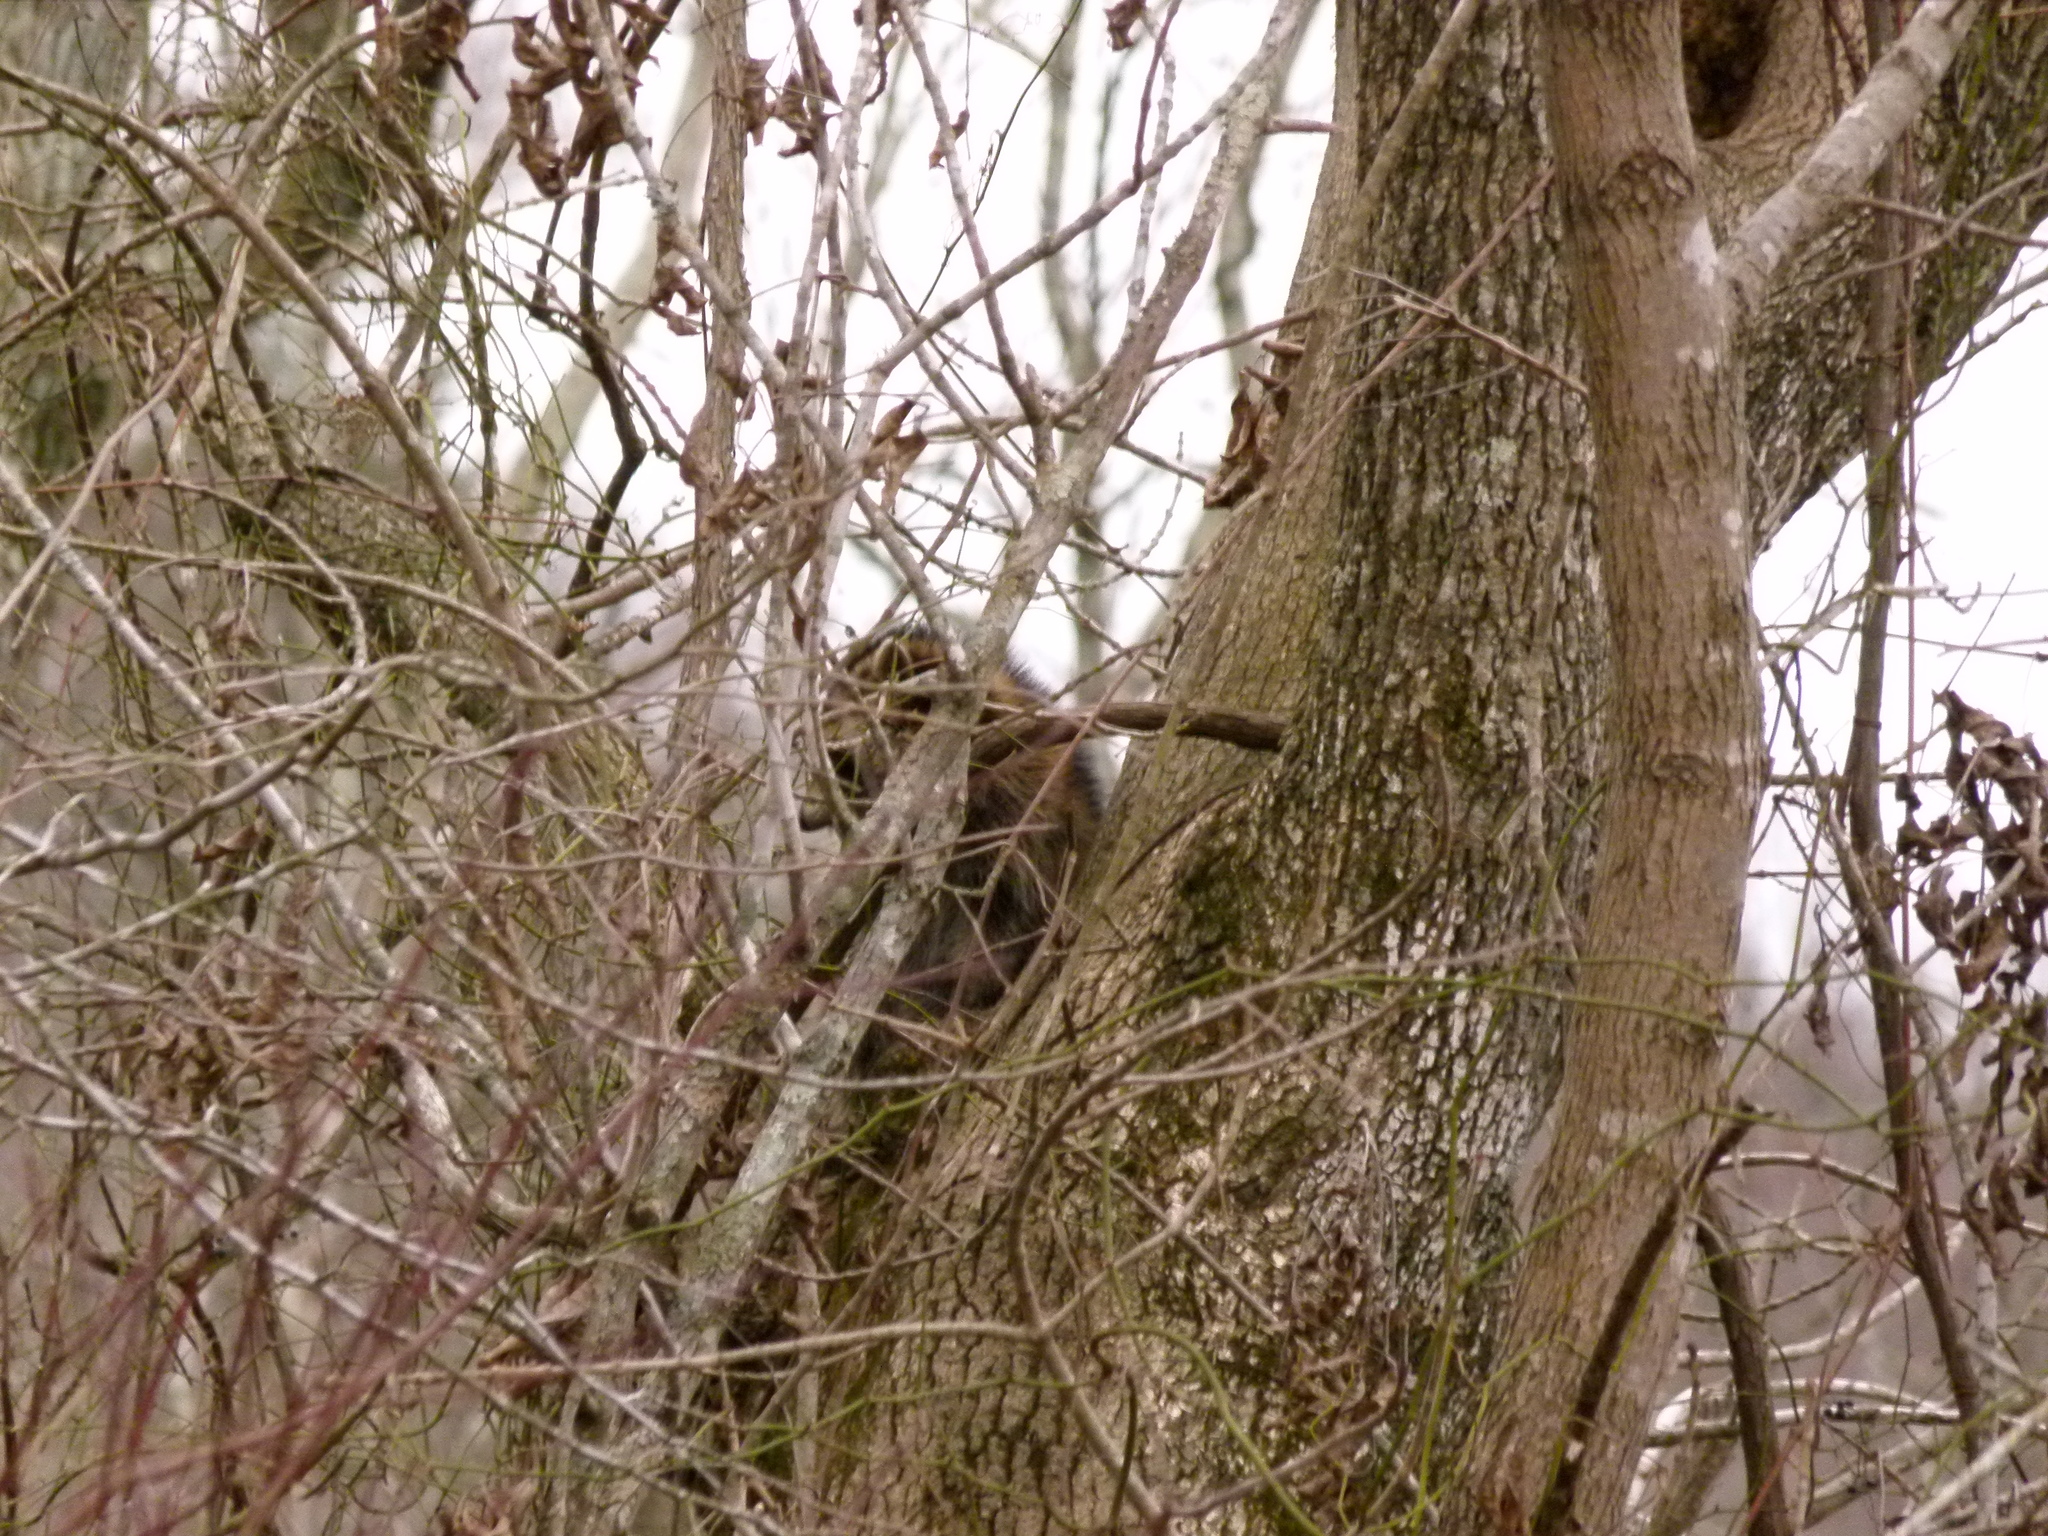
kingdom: Animalia
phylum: Chordata
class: Mammalia
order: Carnivora
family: Procyonidae
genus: Procyon
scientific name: Procyon lotor
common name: Raccoon
